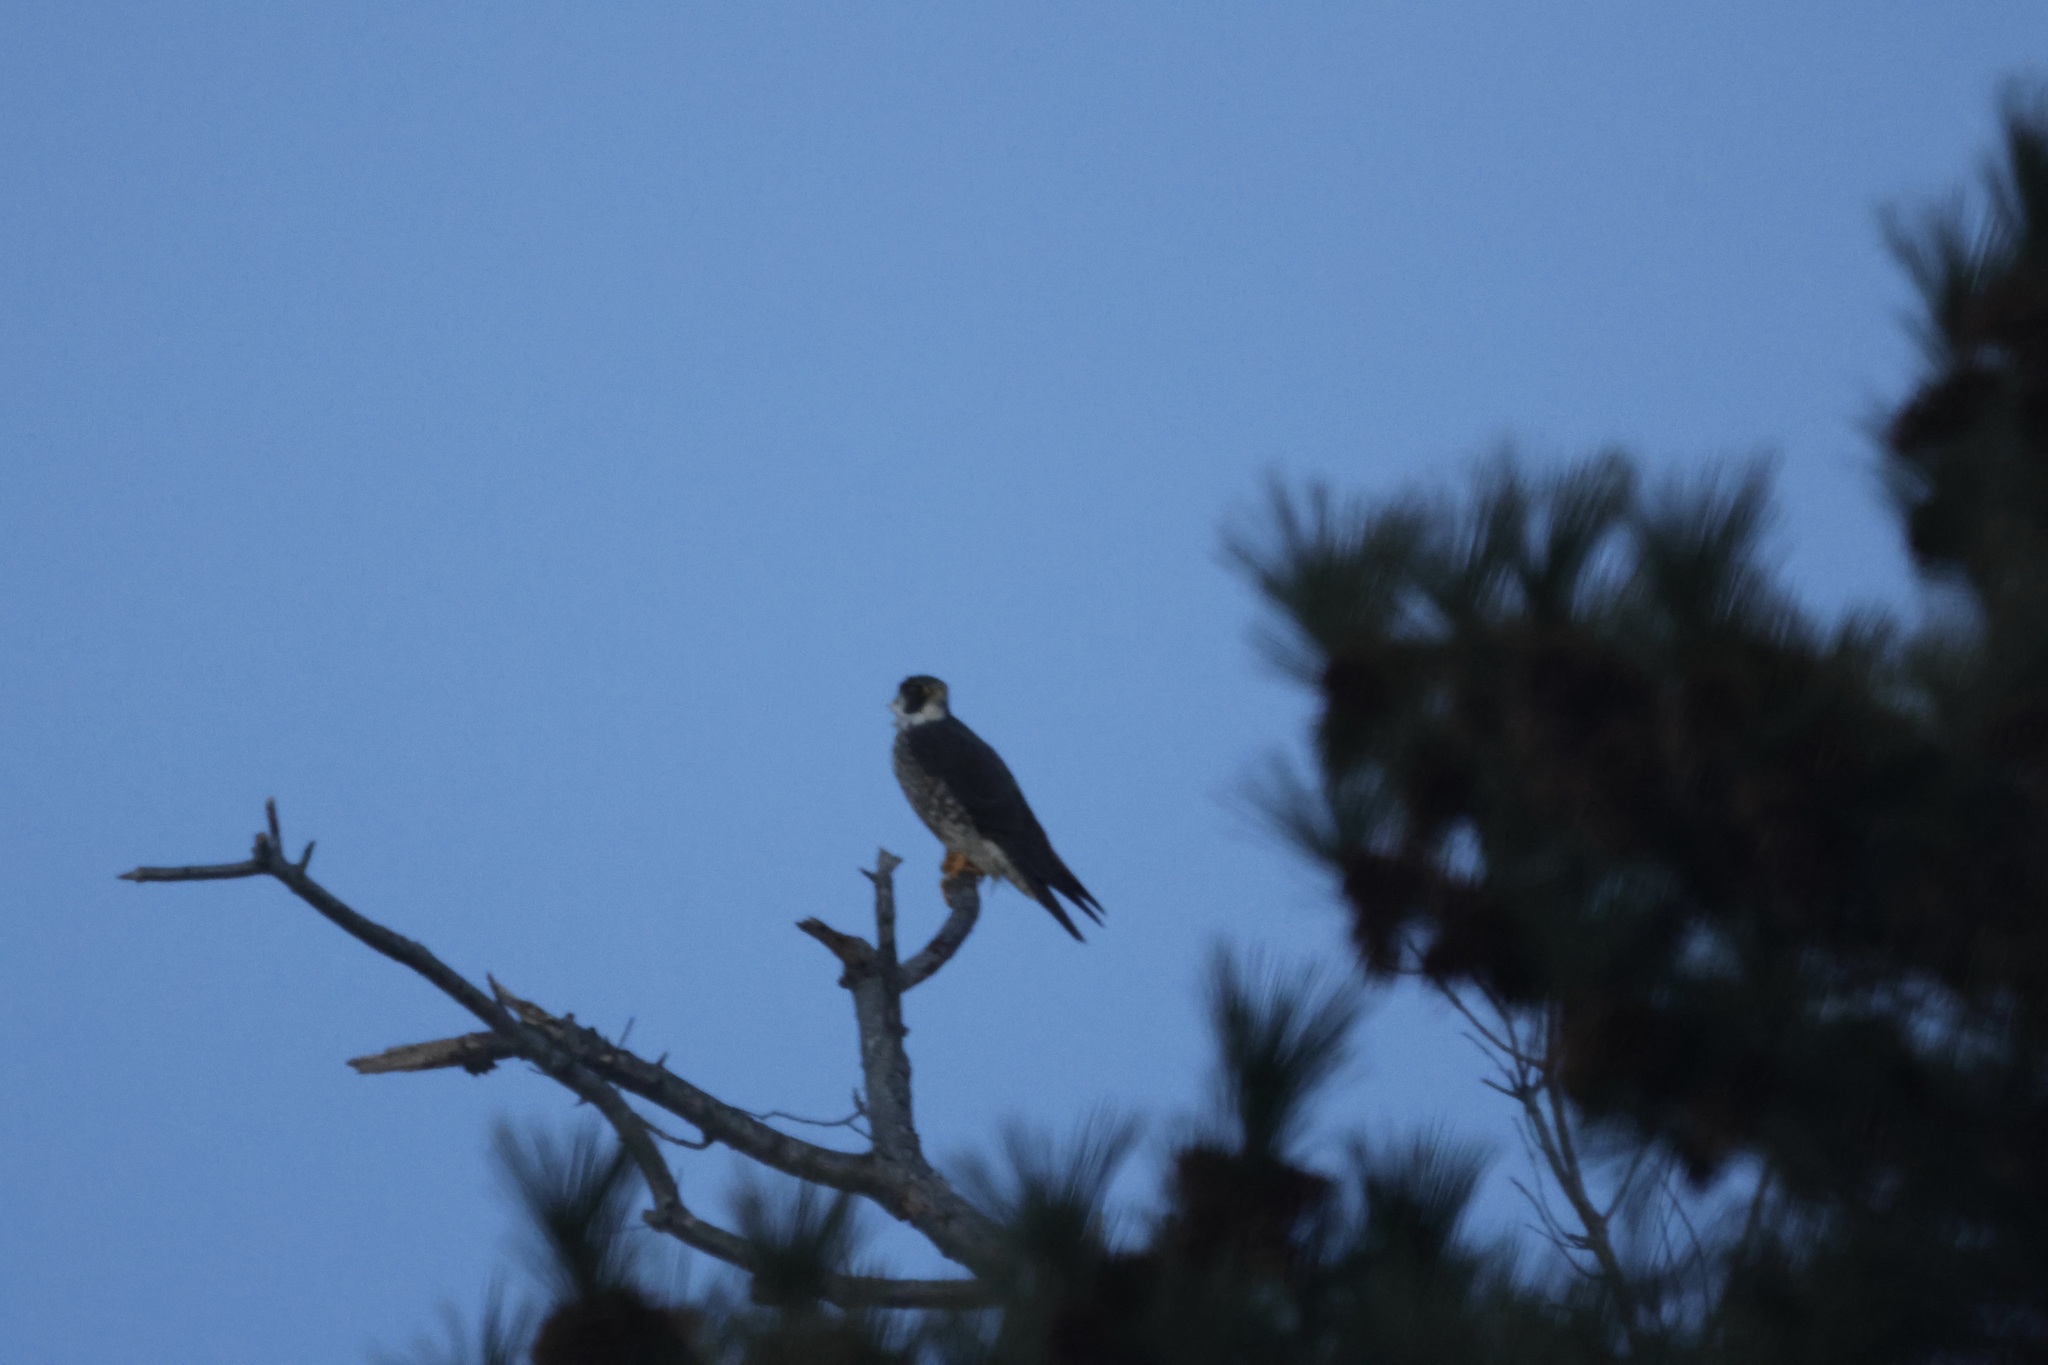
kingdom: Animalia
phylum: Chordata
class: Aves
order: Falconiformes
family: Falconidae
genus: Falco
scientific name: Falco peregrinus
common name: Peregrine falcon
